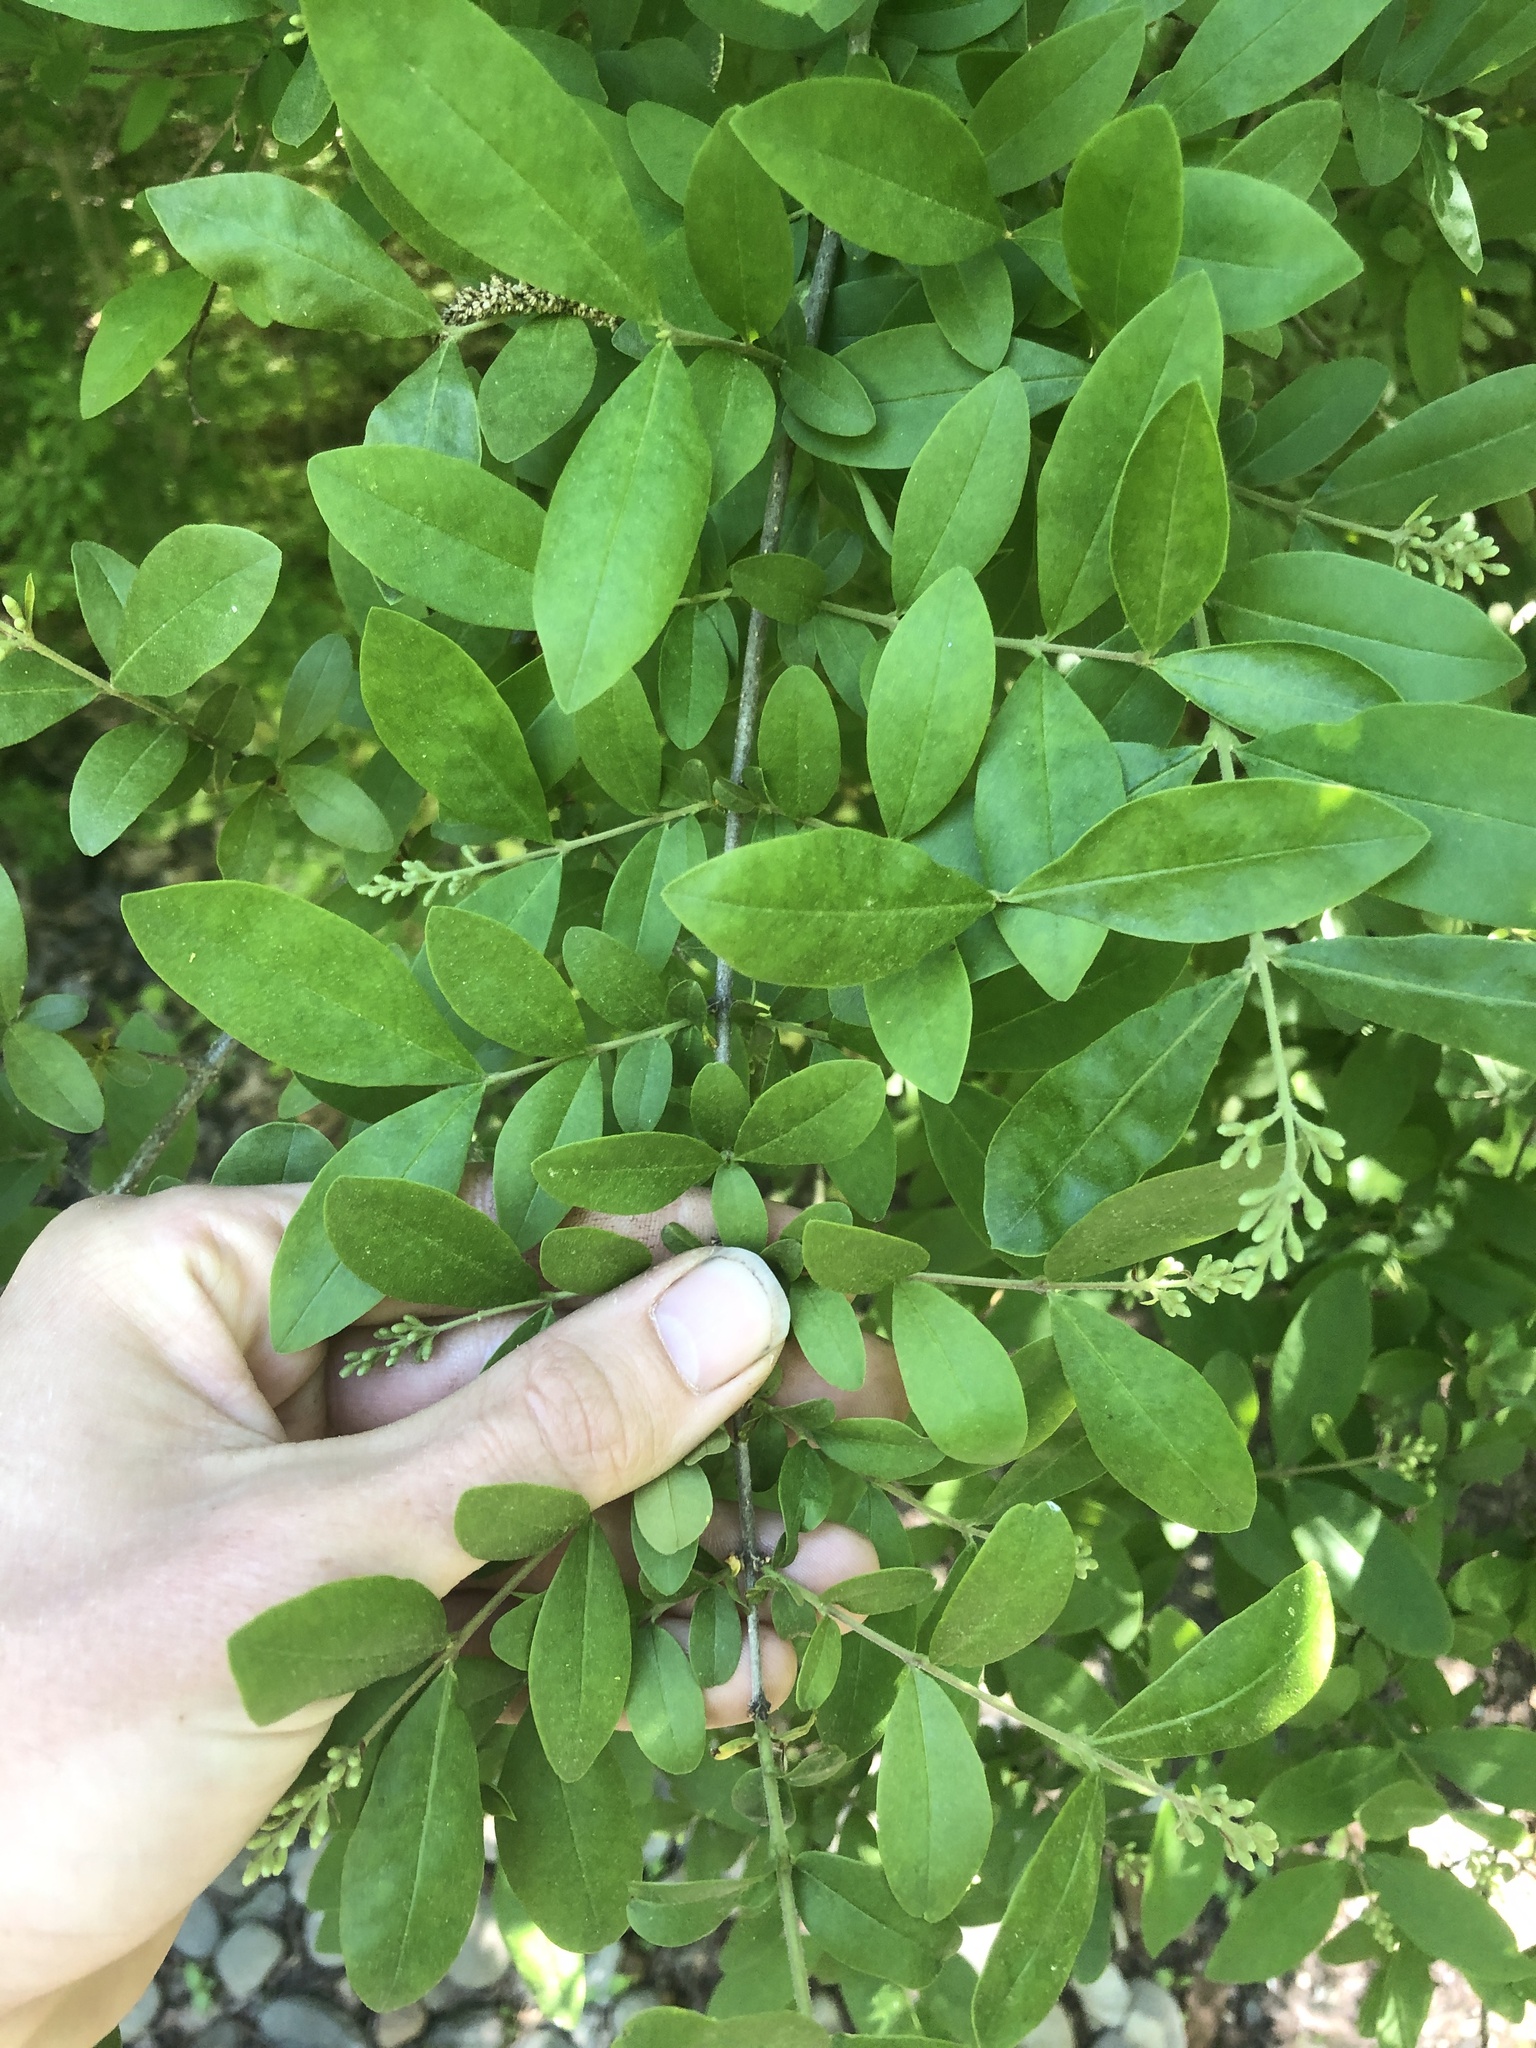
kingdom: Plantae
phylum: Tracheophyta
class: Magnoliopsida
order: Lamiales
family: Oleaceae
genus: Ligustrum
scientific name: Ligustrum obtusifolium
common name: Border privet
